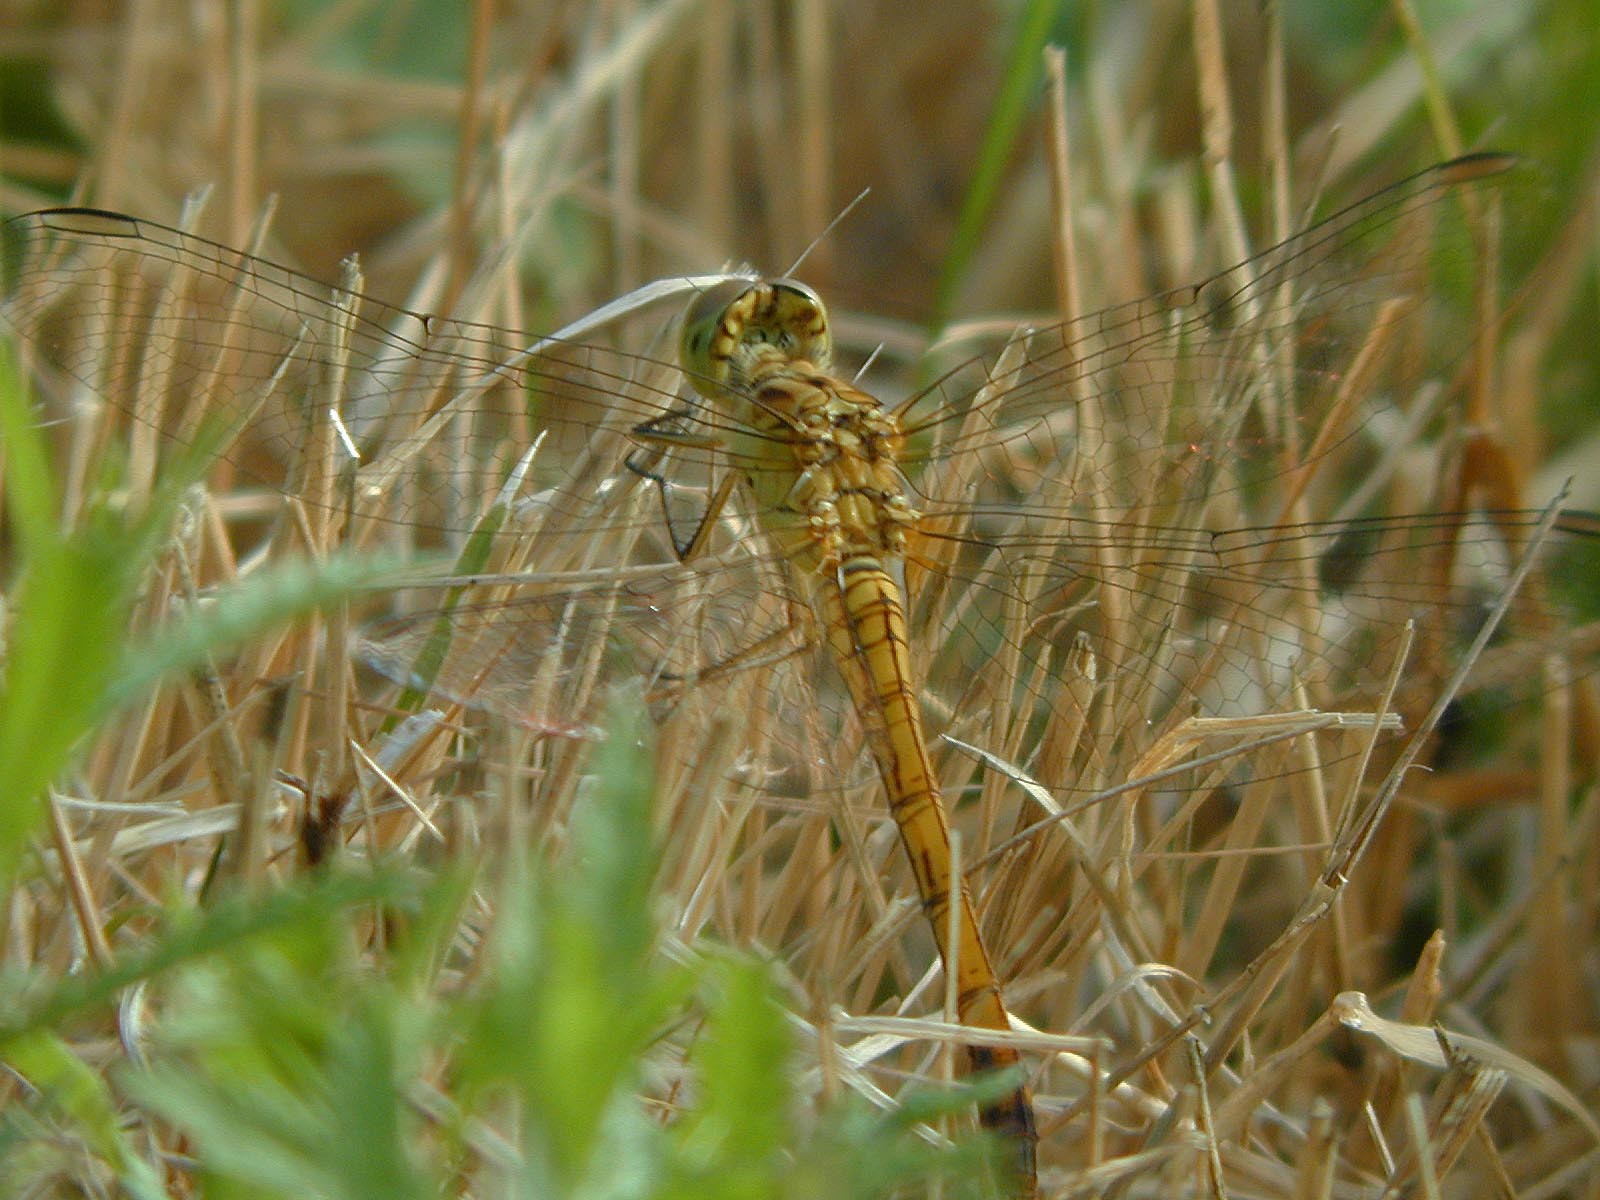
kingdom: Animalia
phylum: Arthropoda
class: Insecta
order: Odonata
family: Libellulidae
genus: Sympetrum
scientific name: Sympetrum meridionale
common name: Southern darter
